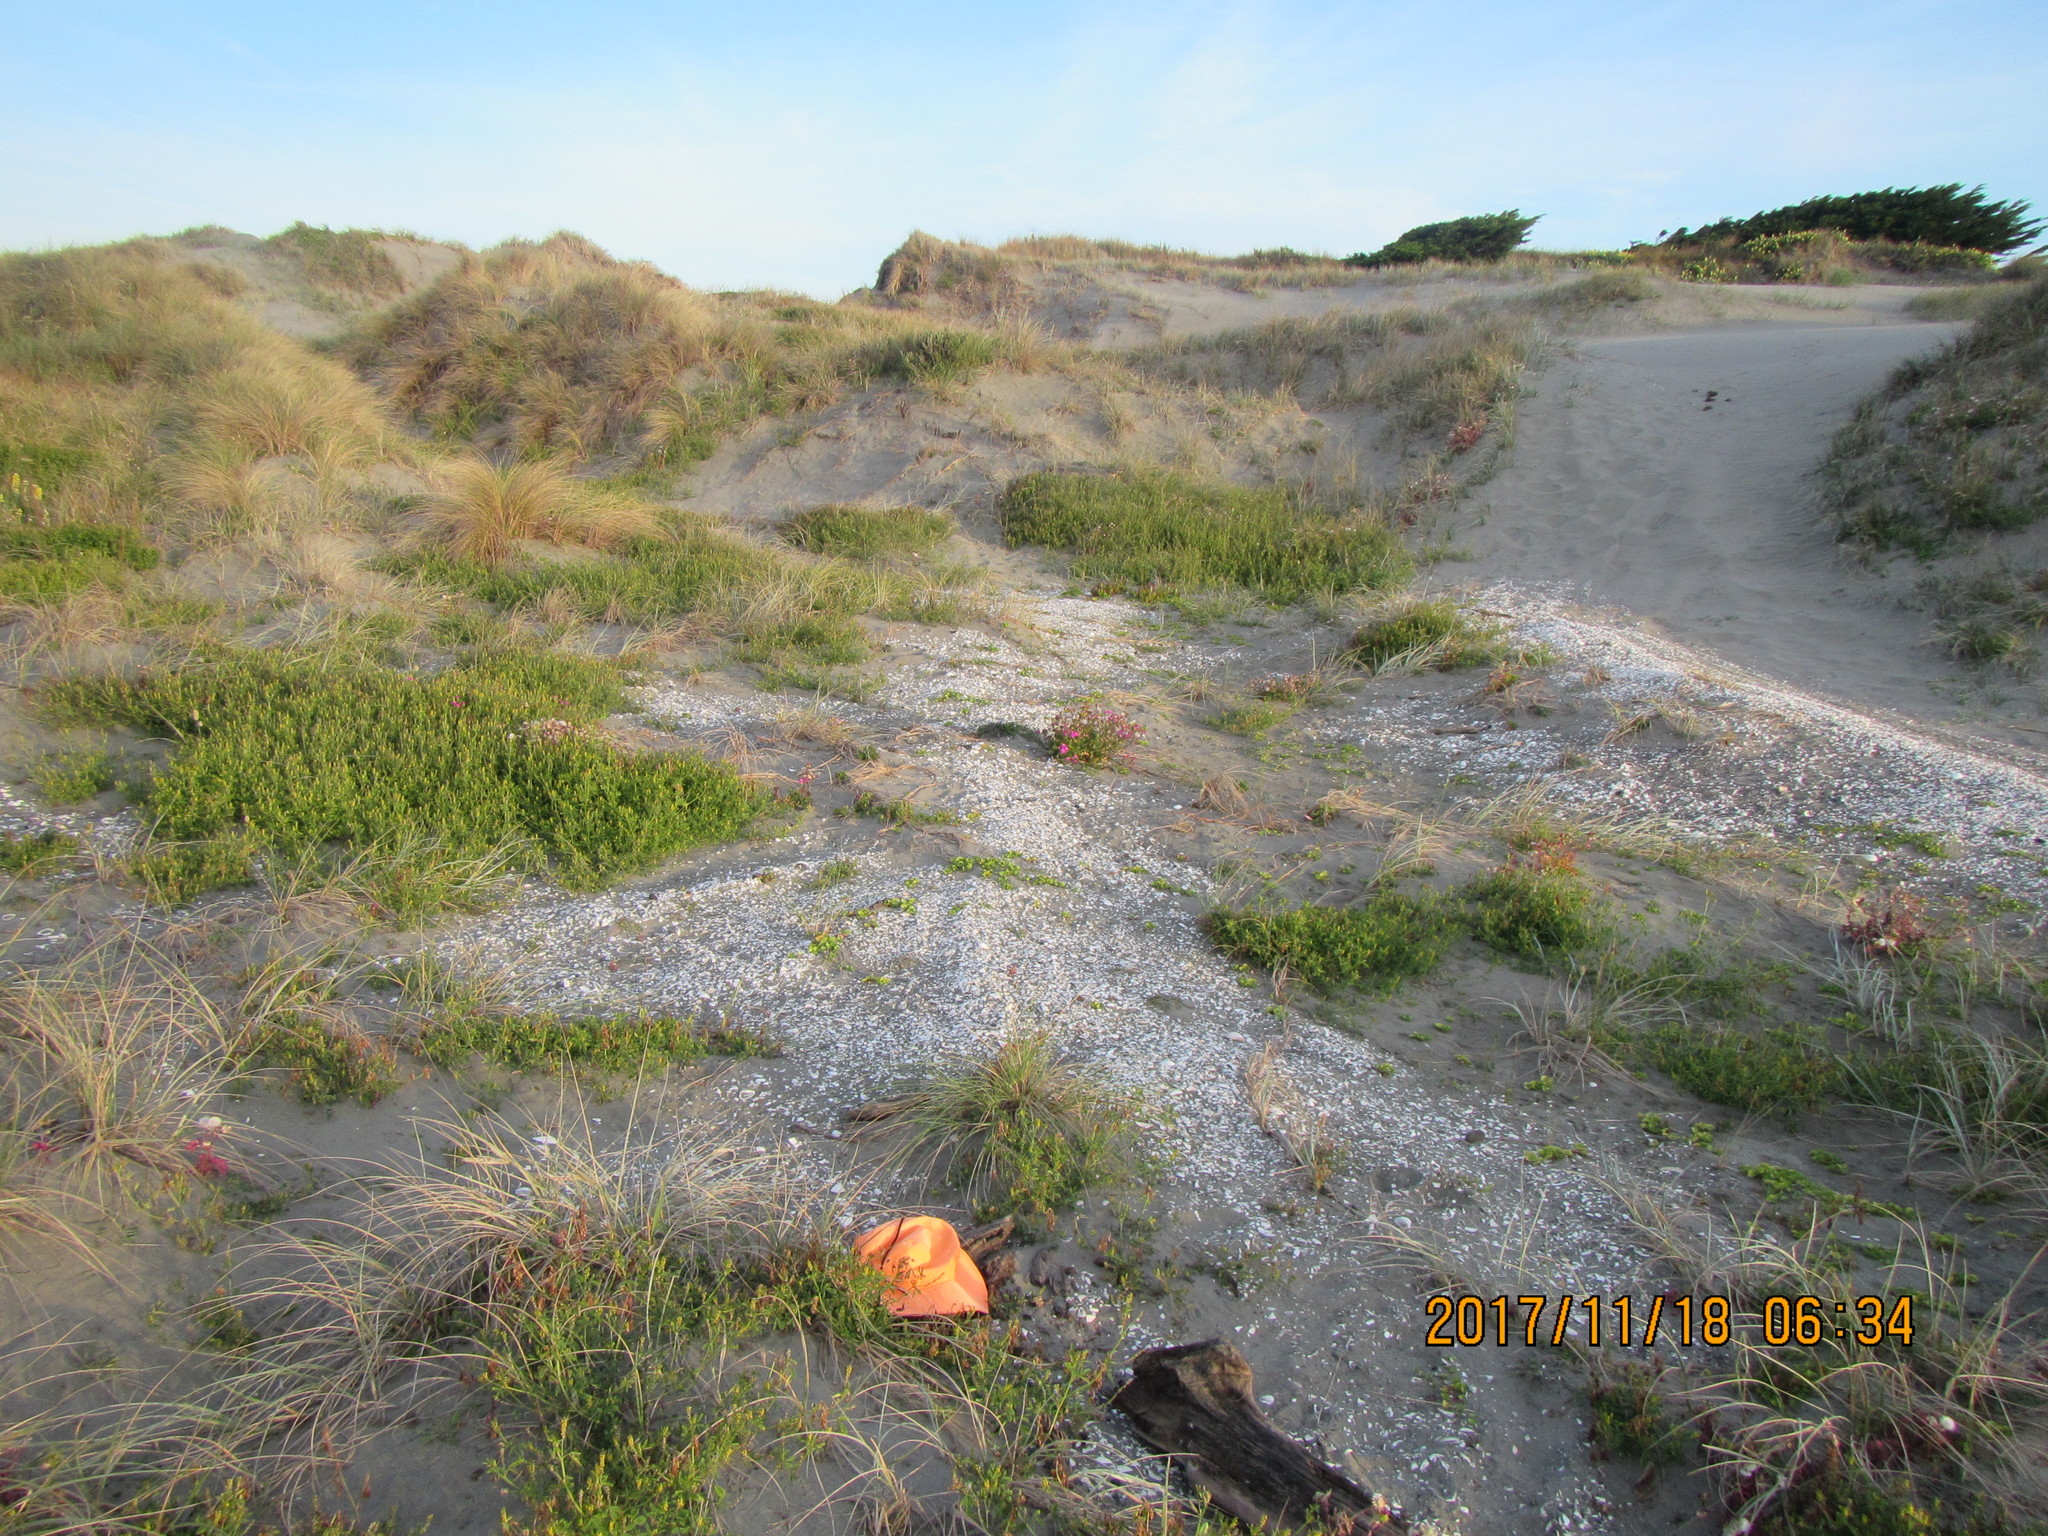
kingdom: Animalia
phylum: Arthropoda
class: Arachnida
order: Araneae
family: Theridiidae
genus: Steatoda
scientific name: Steatoda lepida
